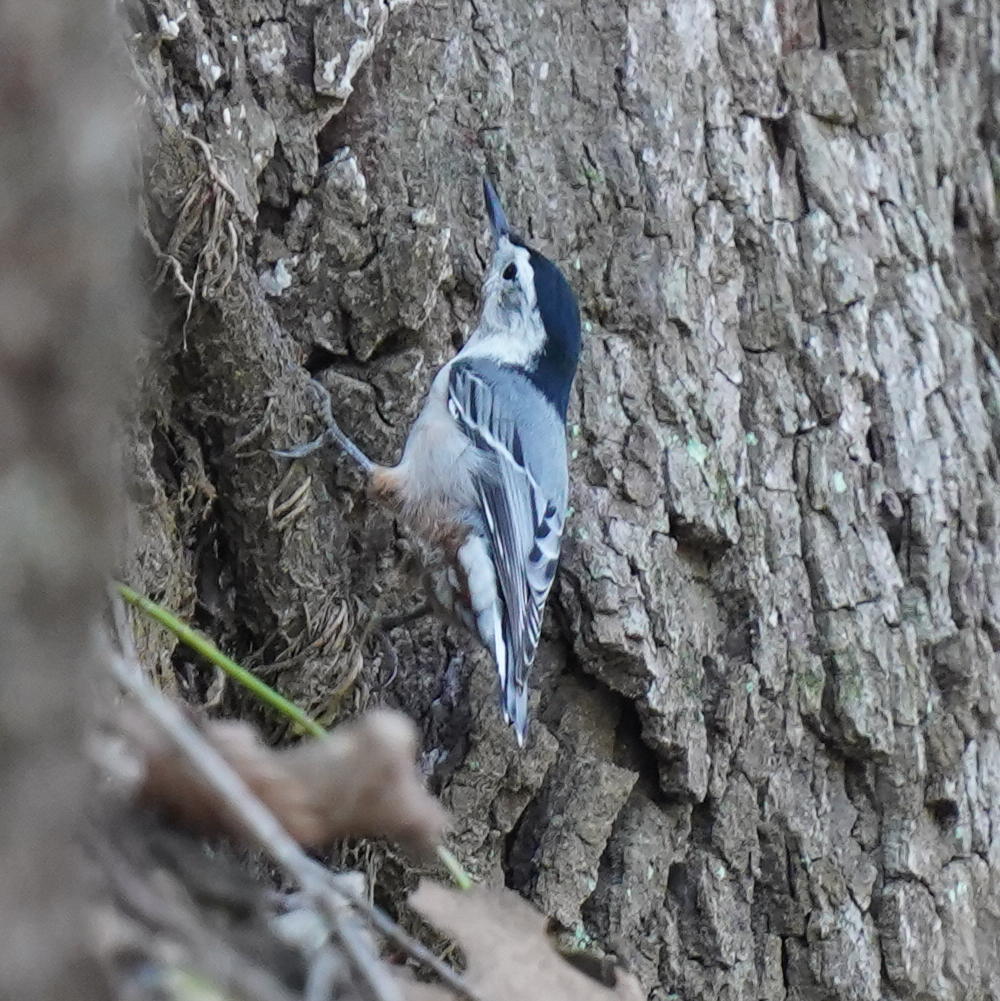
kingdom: Animalia
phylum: Chordata
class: Aves
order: Passeriformes
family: Sittidae
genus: Sitta
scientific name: Sitta carolinensis
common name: White-breasted nuthatch
